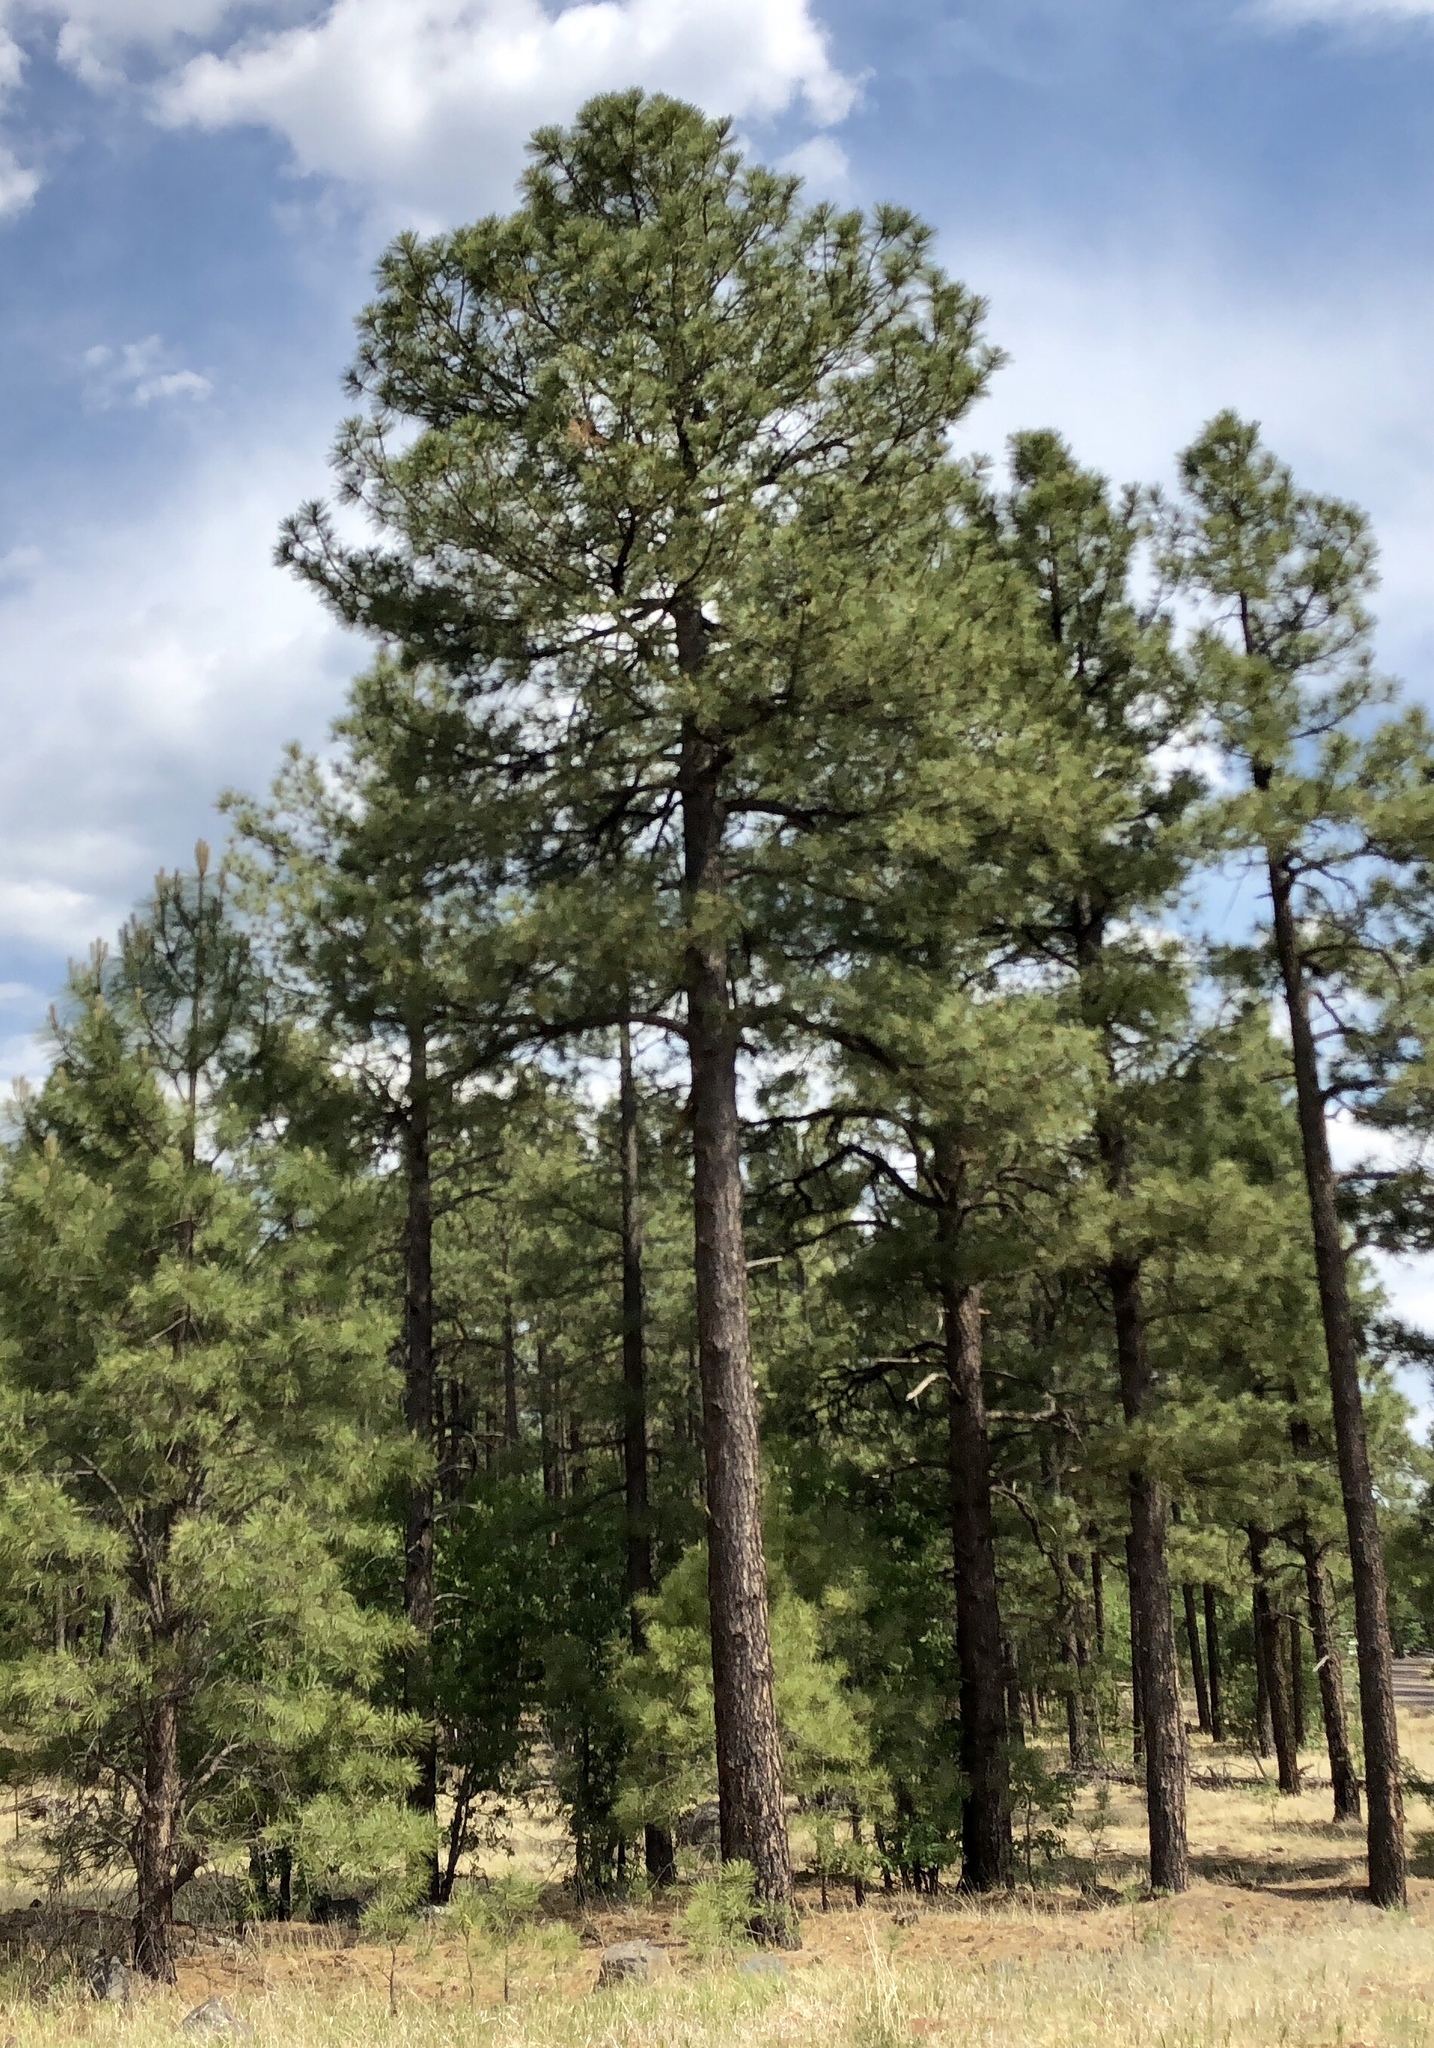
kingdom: Plantae
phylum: Tracheophyta
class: Pinopsida
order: Pinales
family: Pinaceae
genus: Pinus
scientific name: Pinus ponderosa
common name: Western yellow-pine
